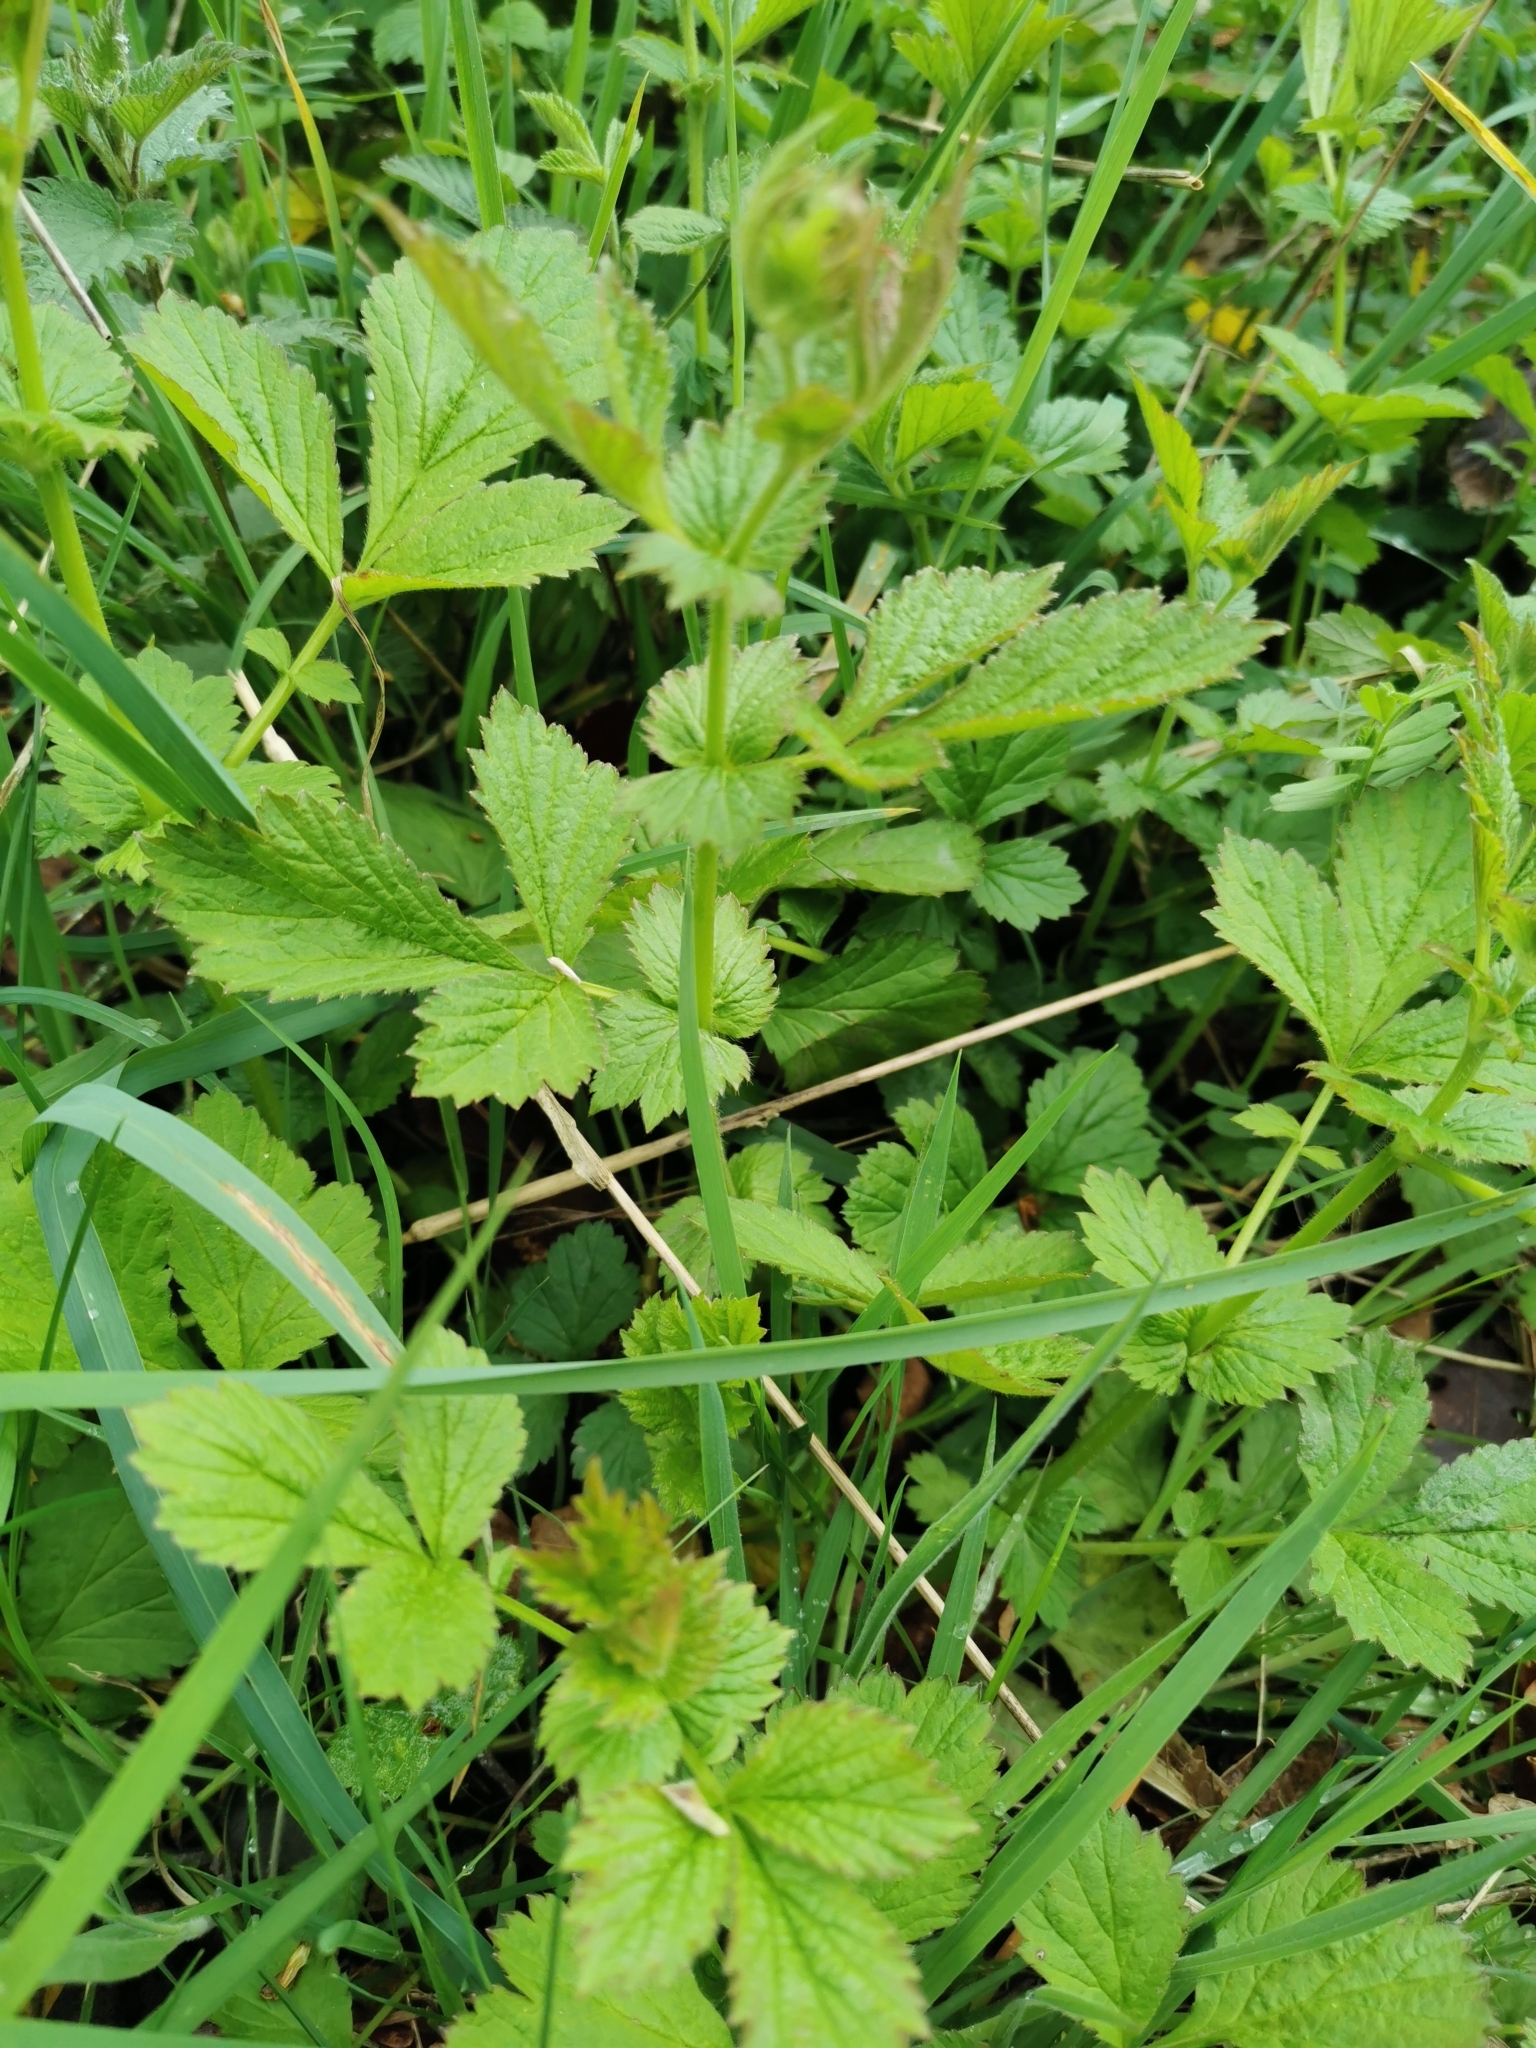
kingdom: Plantae
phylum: Tracheophyta
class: Magnoliopsida
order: Rosales
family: Rosaceae
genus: Geum
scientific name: Geum urbanum
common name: Wood avens
